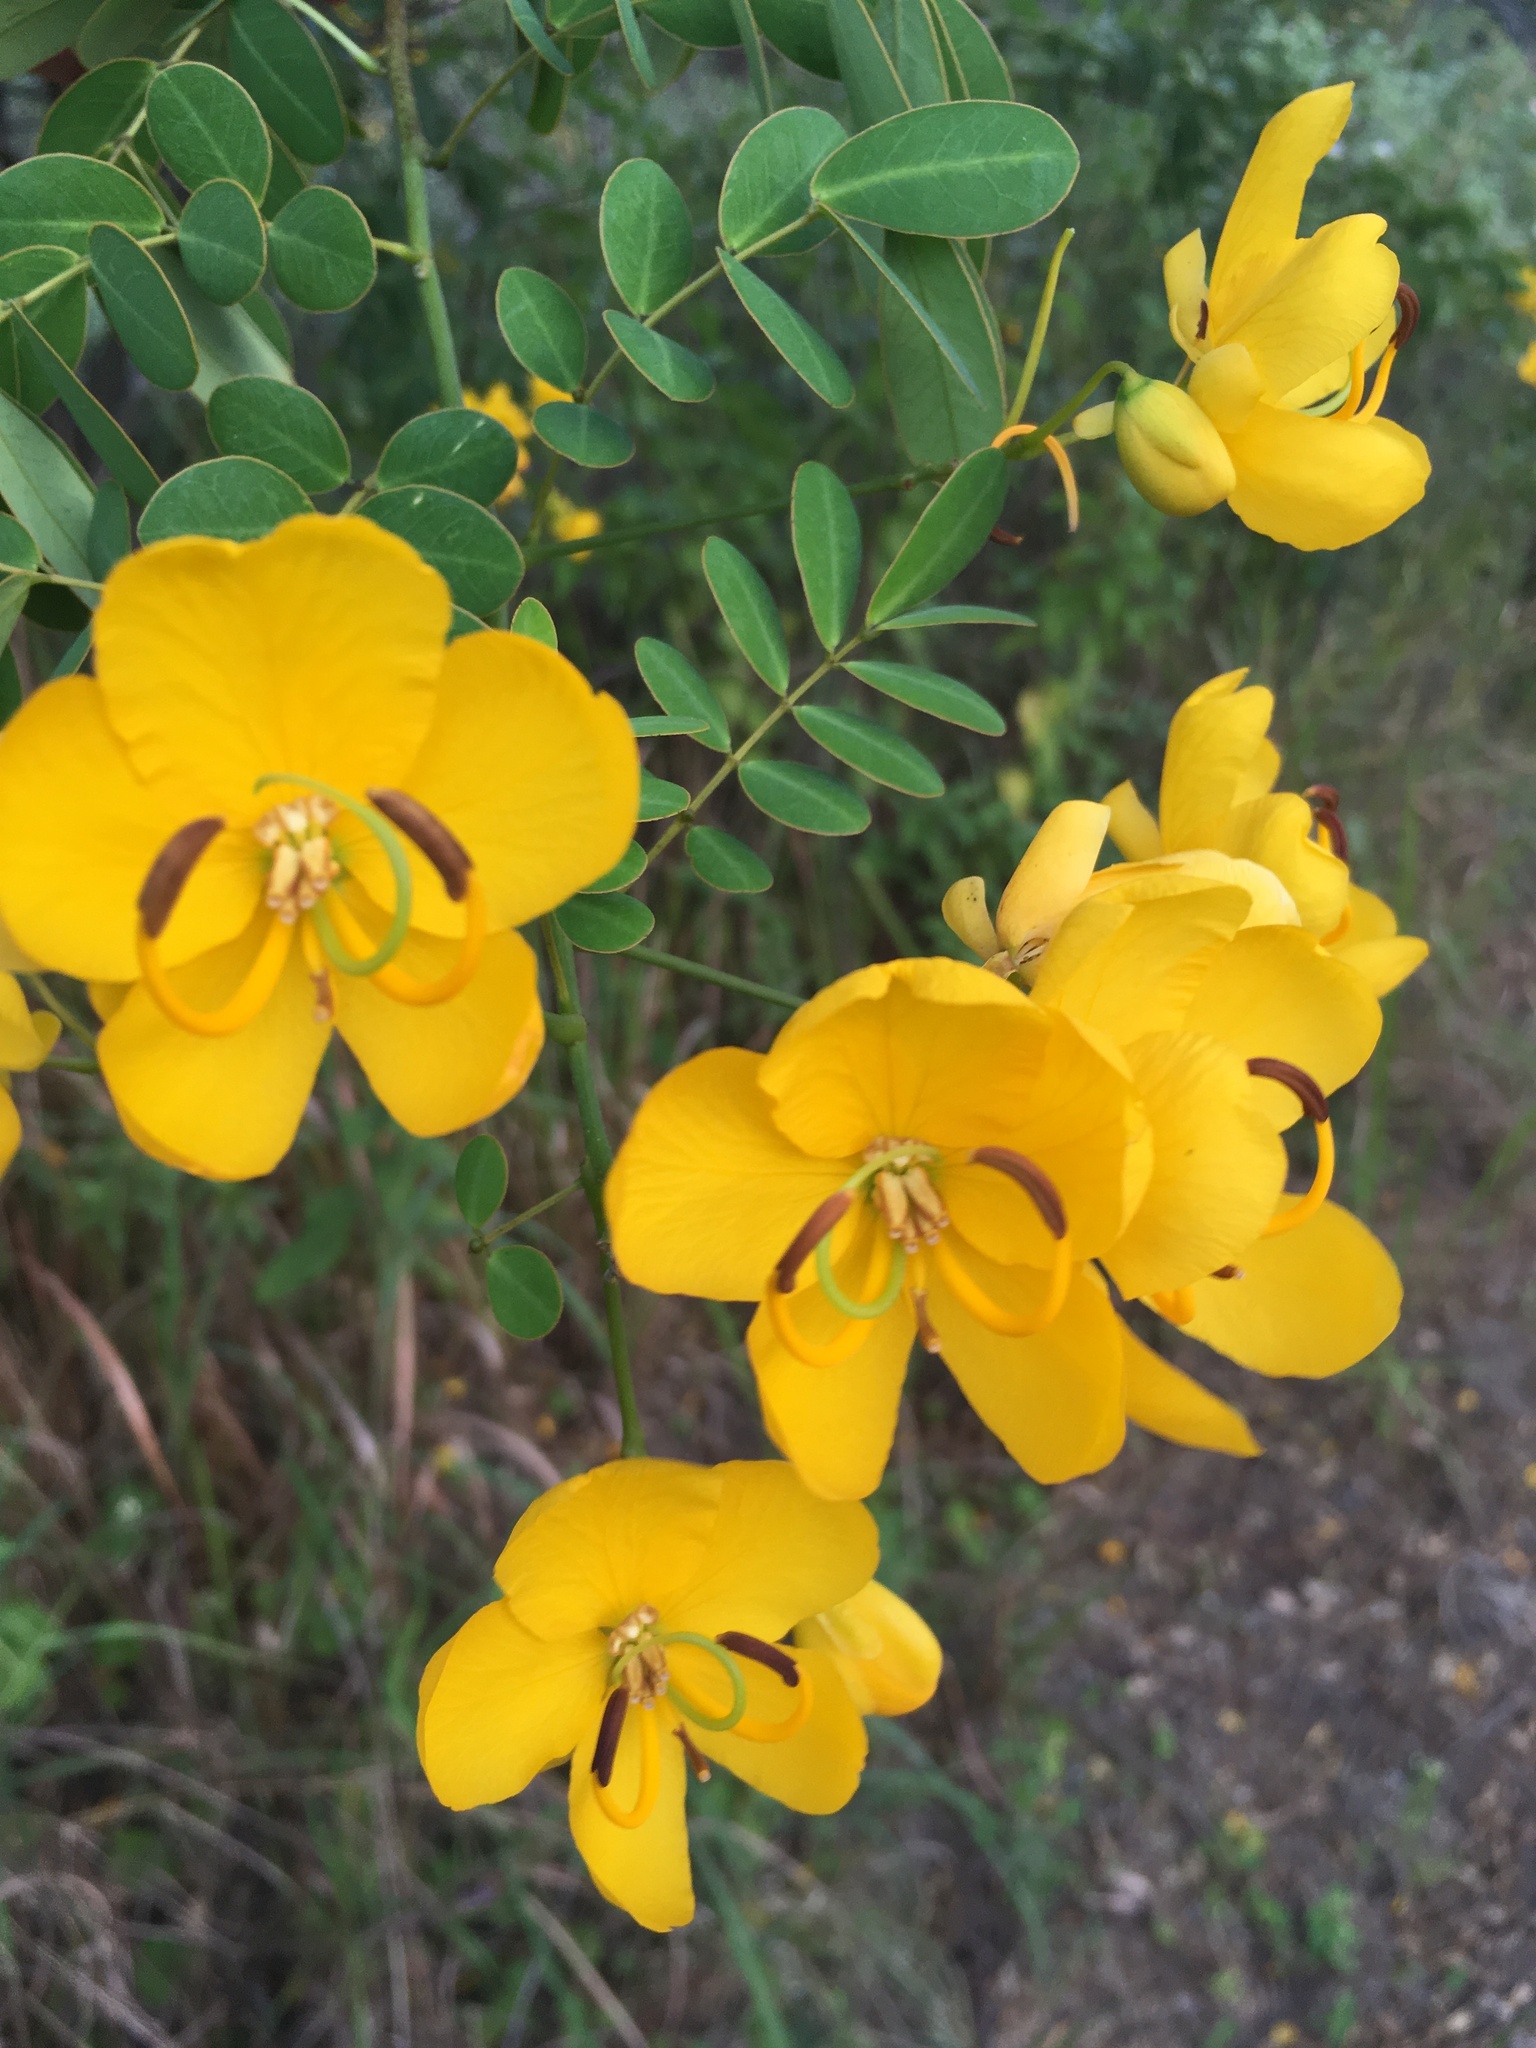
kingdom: Plantae
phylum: Tracheophyta
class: Magnoliopsida
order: Fabales
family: Fabaceae
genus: Senna
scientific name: Senna bicapsularis
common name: Christmasbush
